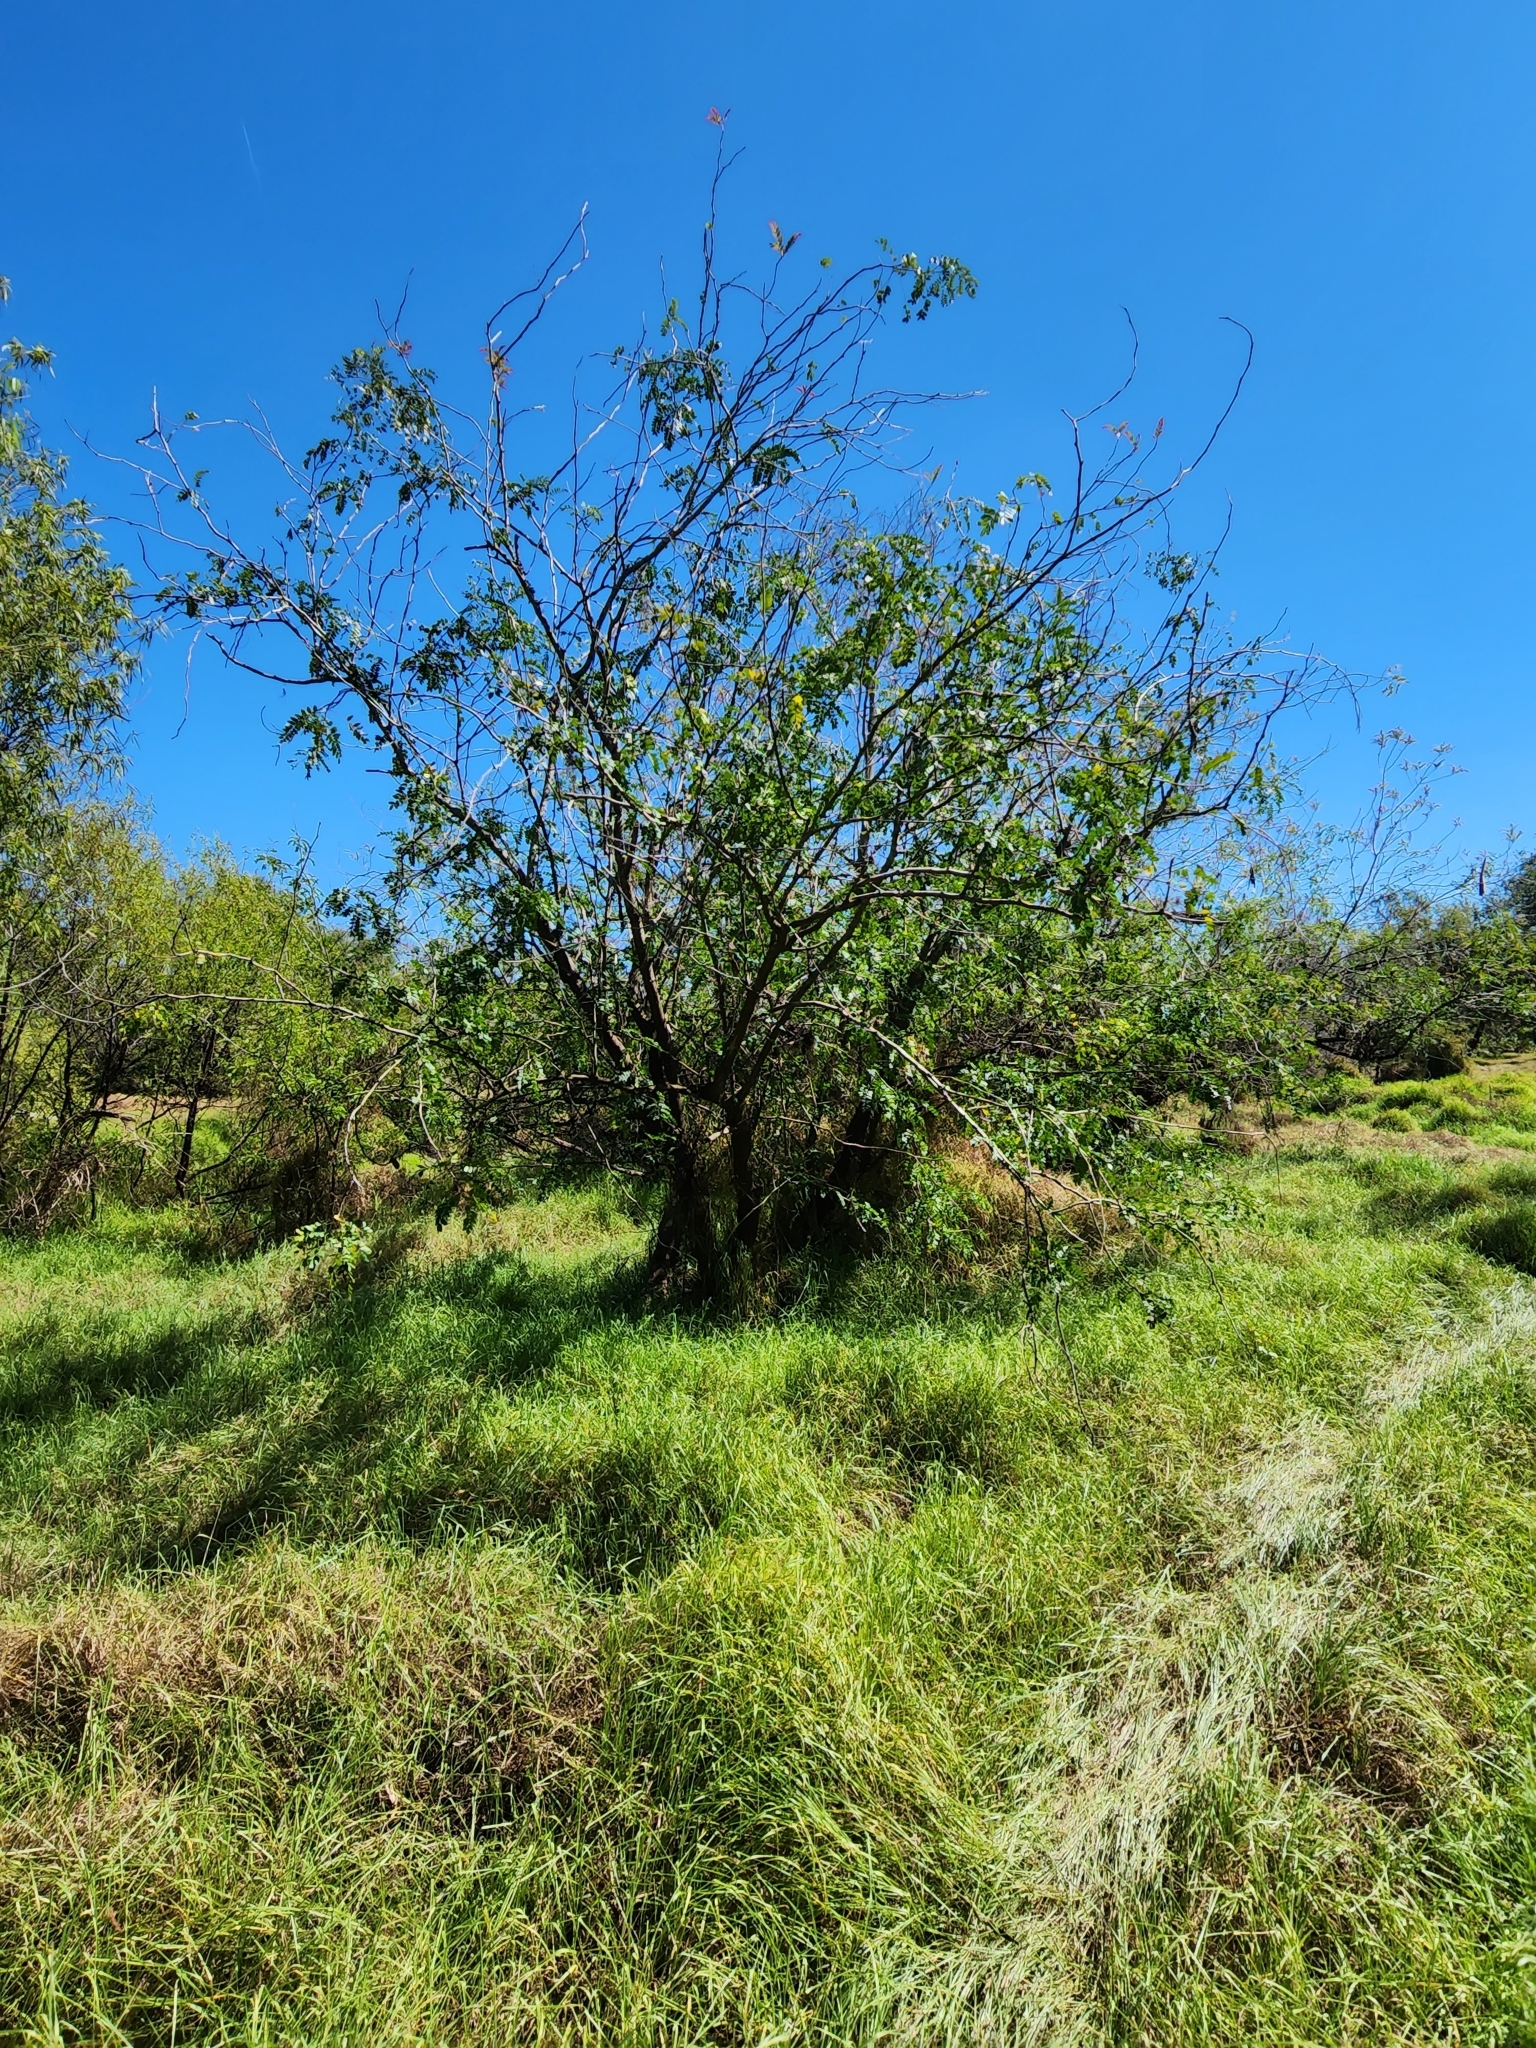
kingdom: Plantae
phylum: Tracheophyta
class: Magnoliopsida
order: Fabales
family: Fabaceae
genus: Gleditsia
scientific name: Gleditsia aquatica
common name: Swamp-locust
